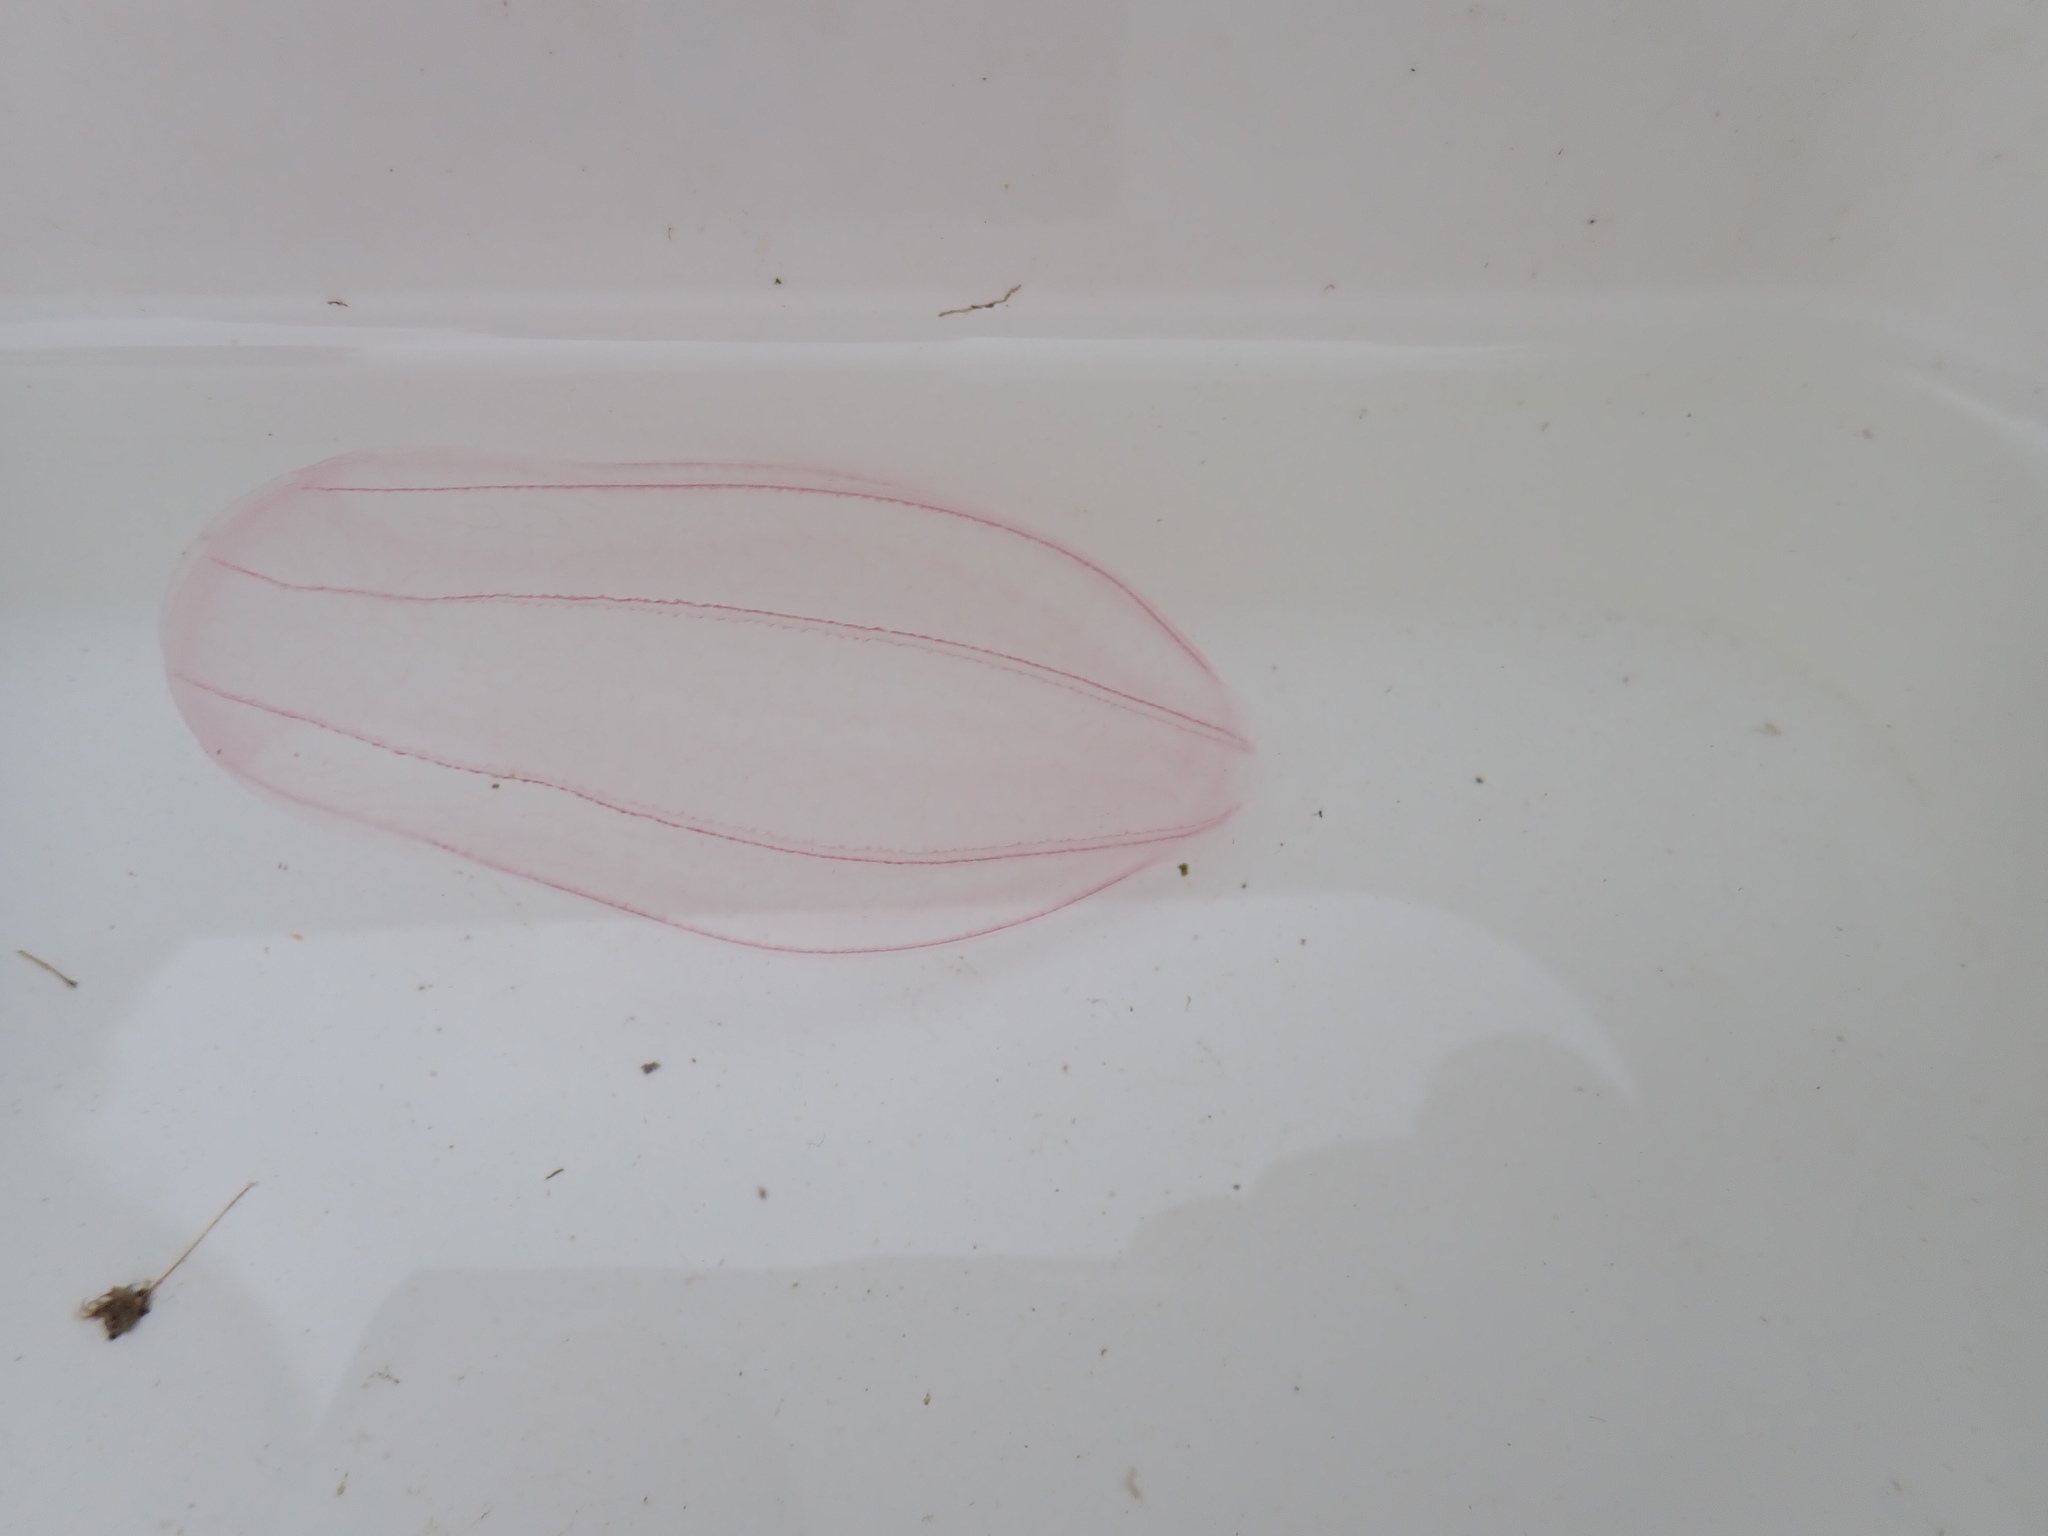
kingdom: Animalia
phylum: Ctenophora
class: Nuda
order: Beroida
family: Beroidae
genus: Beroe
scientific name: Beroe cucumis
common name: Beroe
